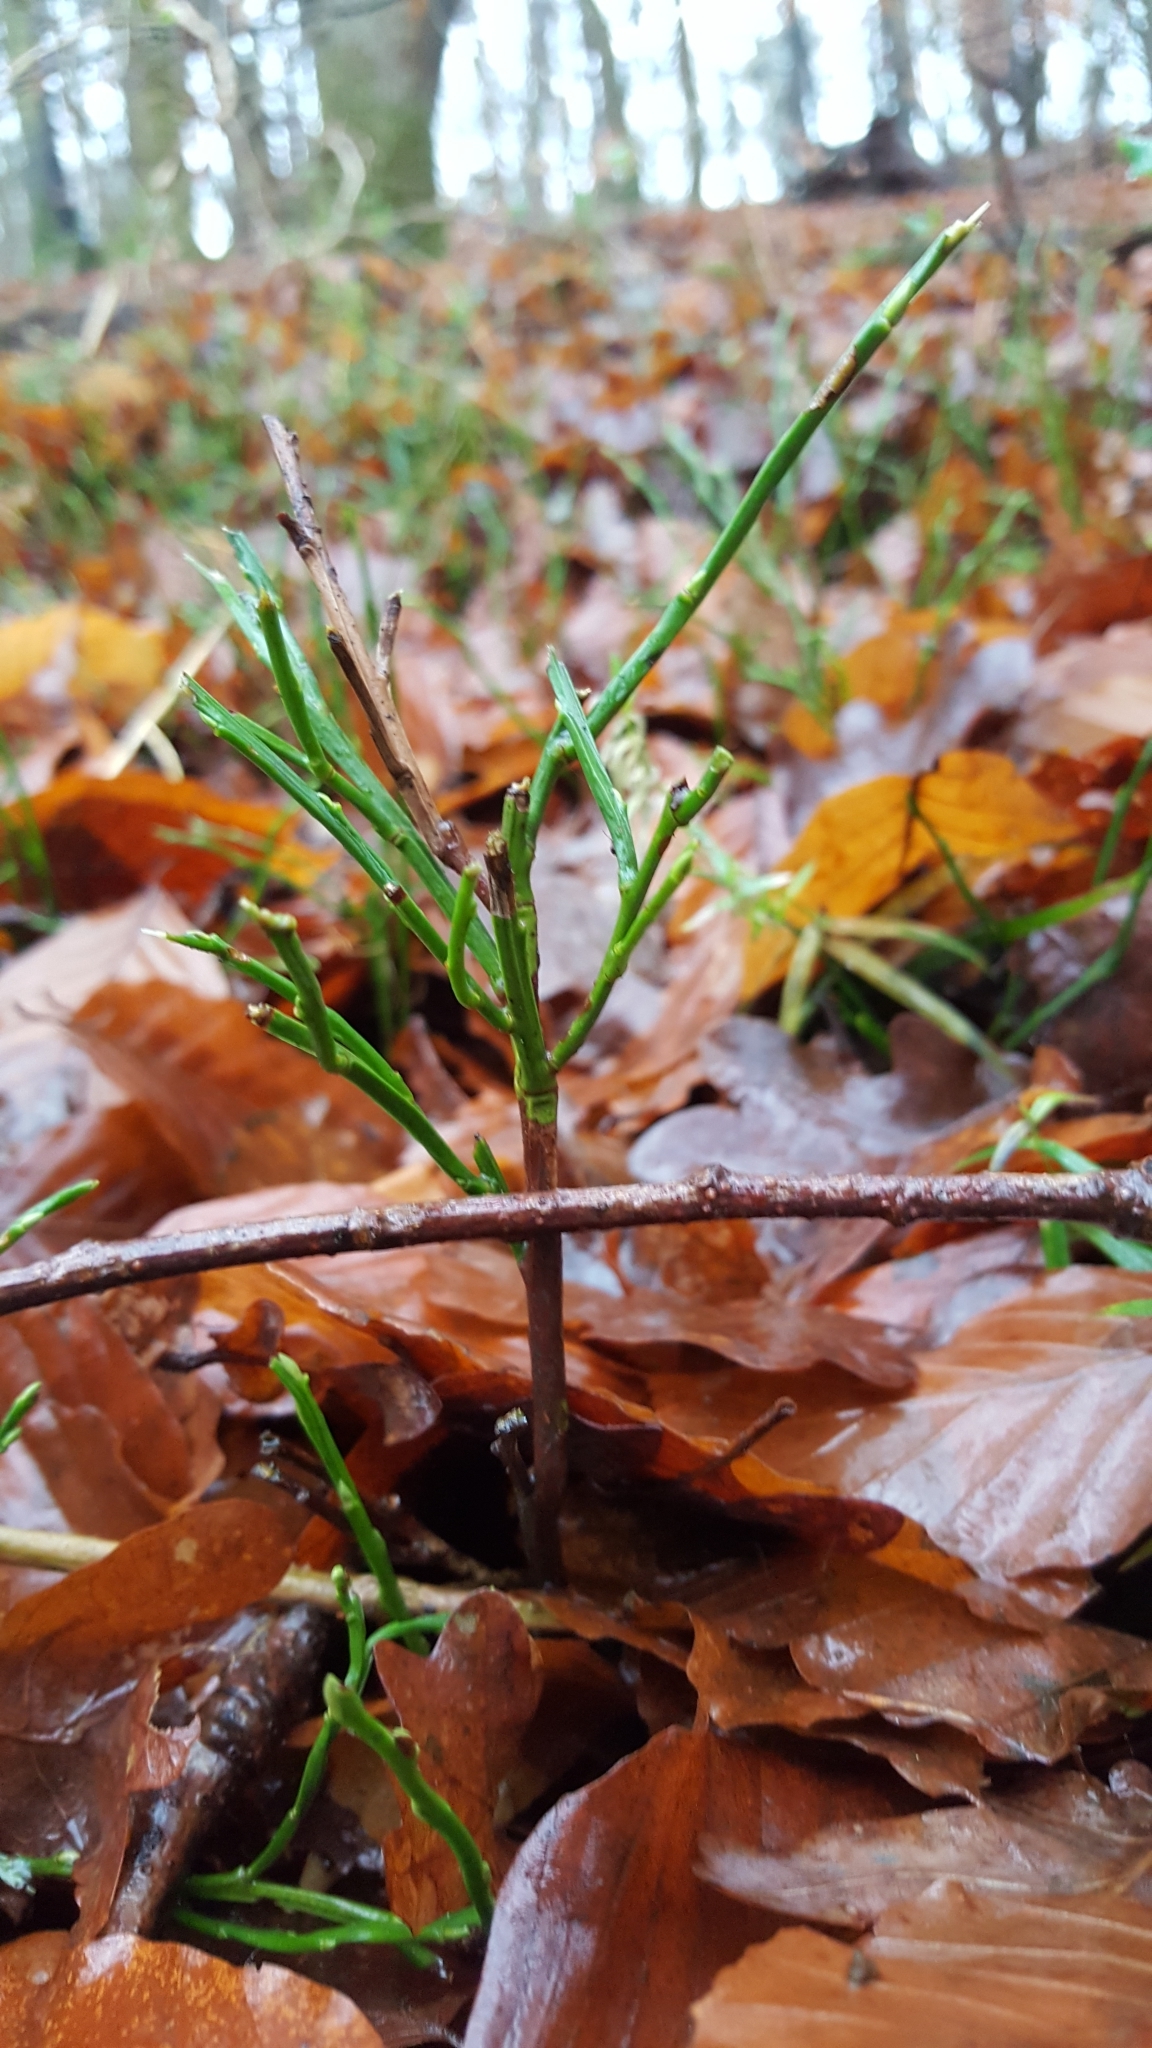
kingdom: Plantae
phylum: Tracheophyta
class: Magnoliopsida
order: Ericales
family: Ericaceae
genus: Vaccinium
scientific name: Vaccinium myrtillus
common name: Bilberry
